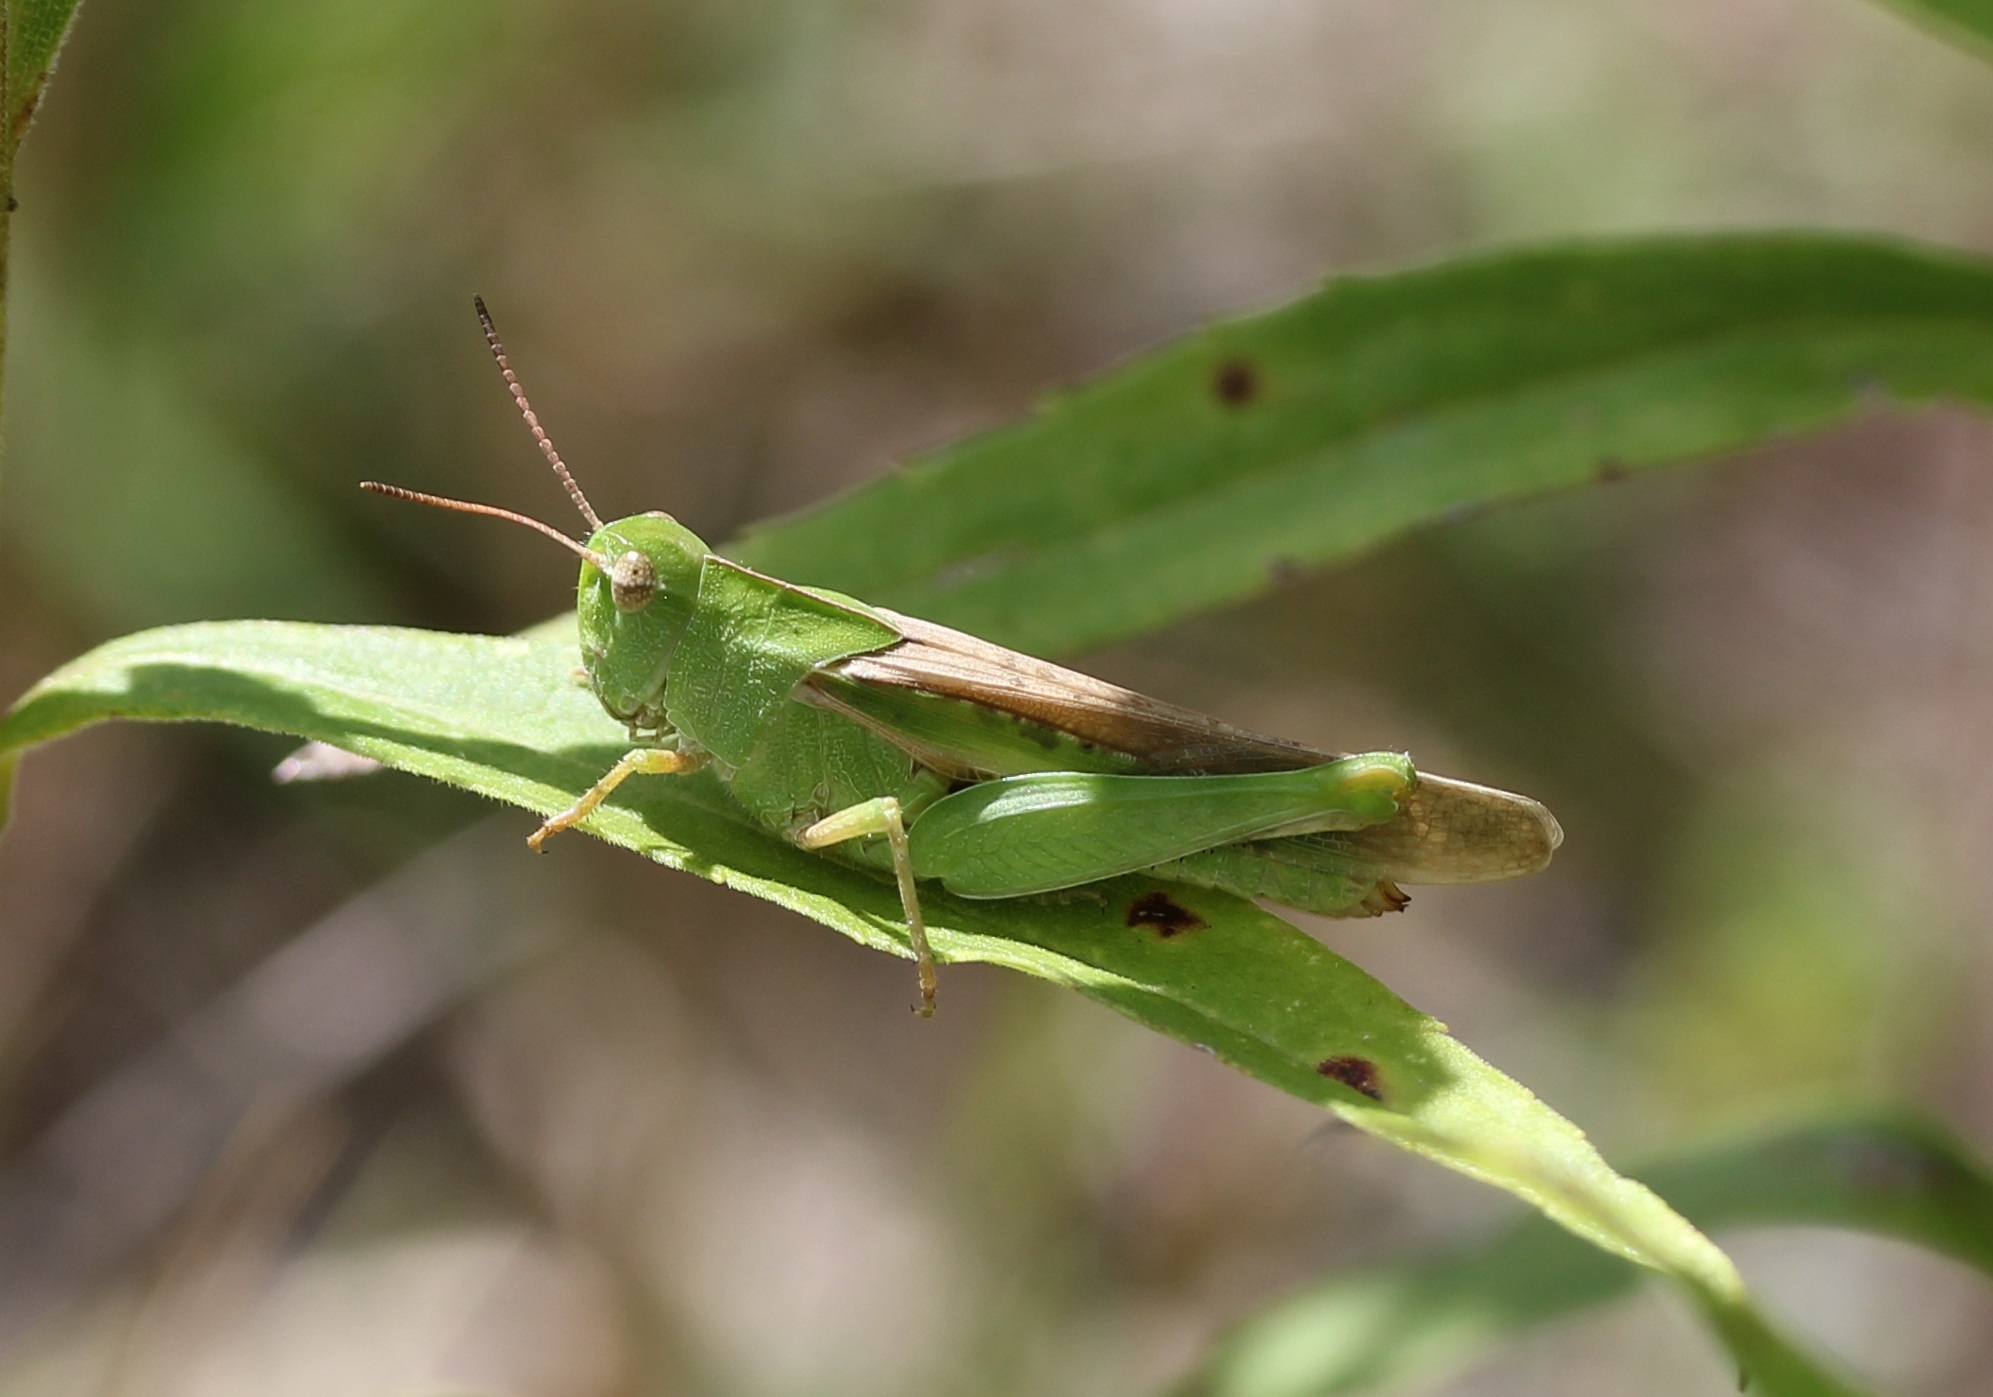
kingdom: Animalia
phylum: Arthropoda
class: Insecta
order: Orthoptera
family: Acrididae
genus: Chortophaga
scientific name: Chortophaga viridifasciata
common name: Green-striped grasshopper
